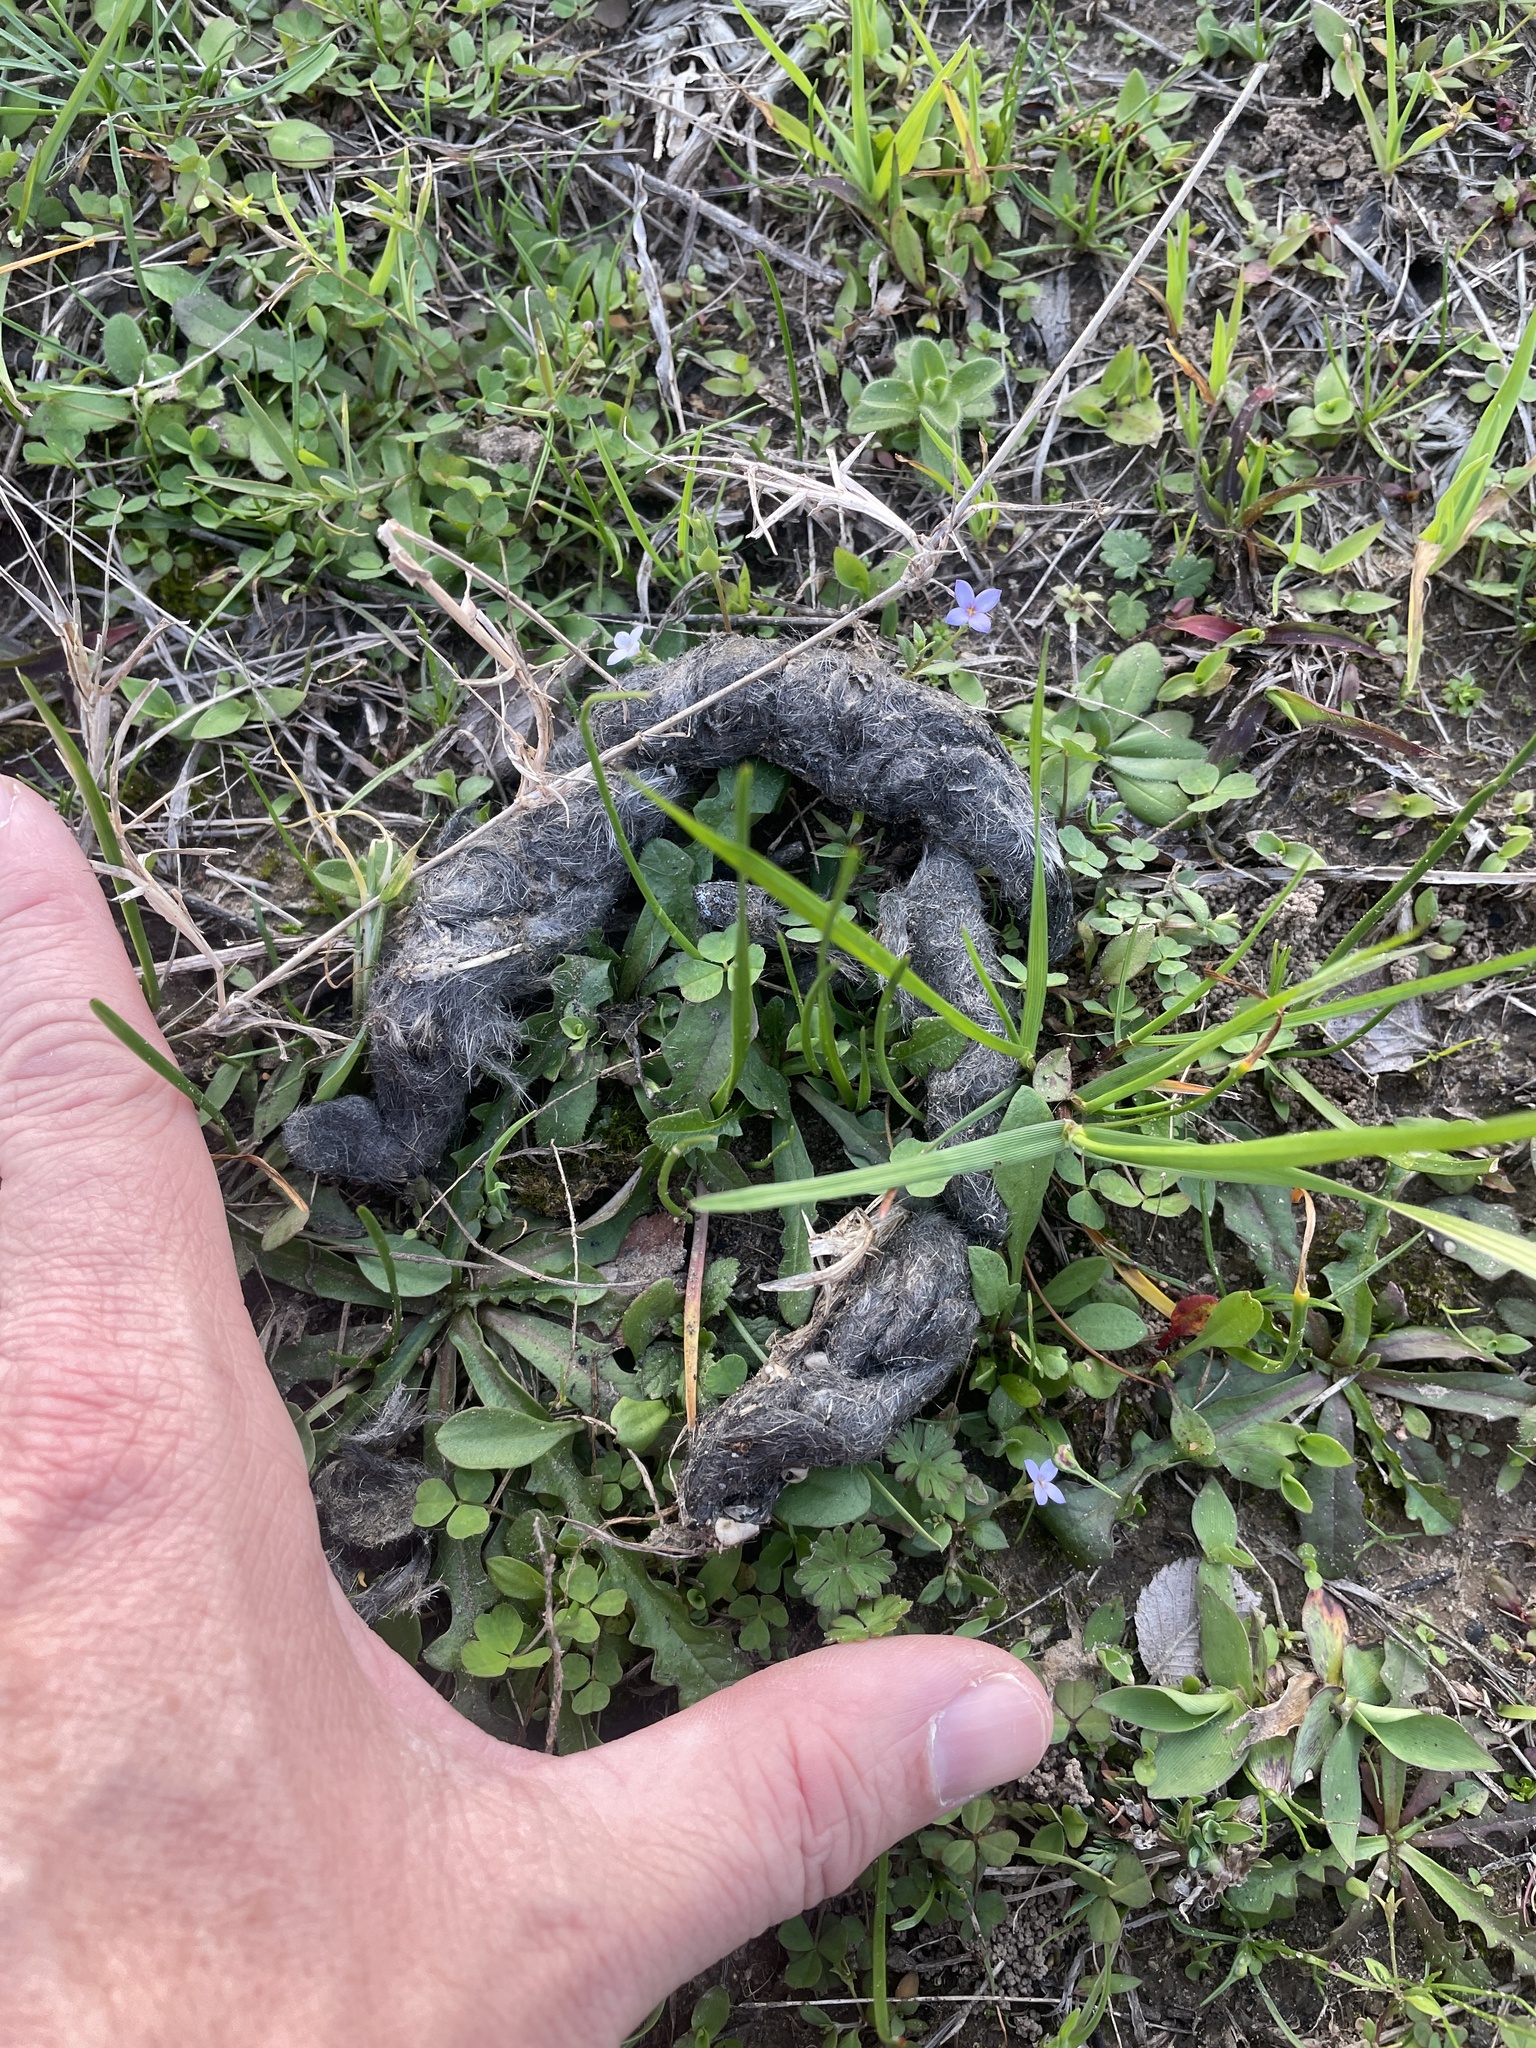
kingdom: Animalia
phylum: Chordata
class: Mammalia
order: Carnivora
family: Canidae
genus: Canis
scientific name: Canis latrans
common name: Coyote
